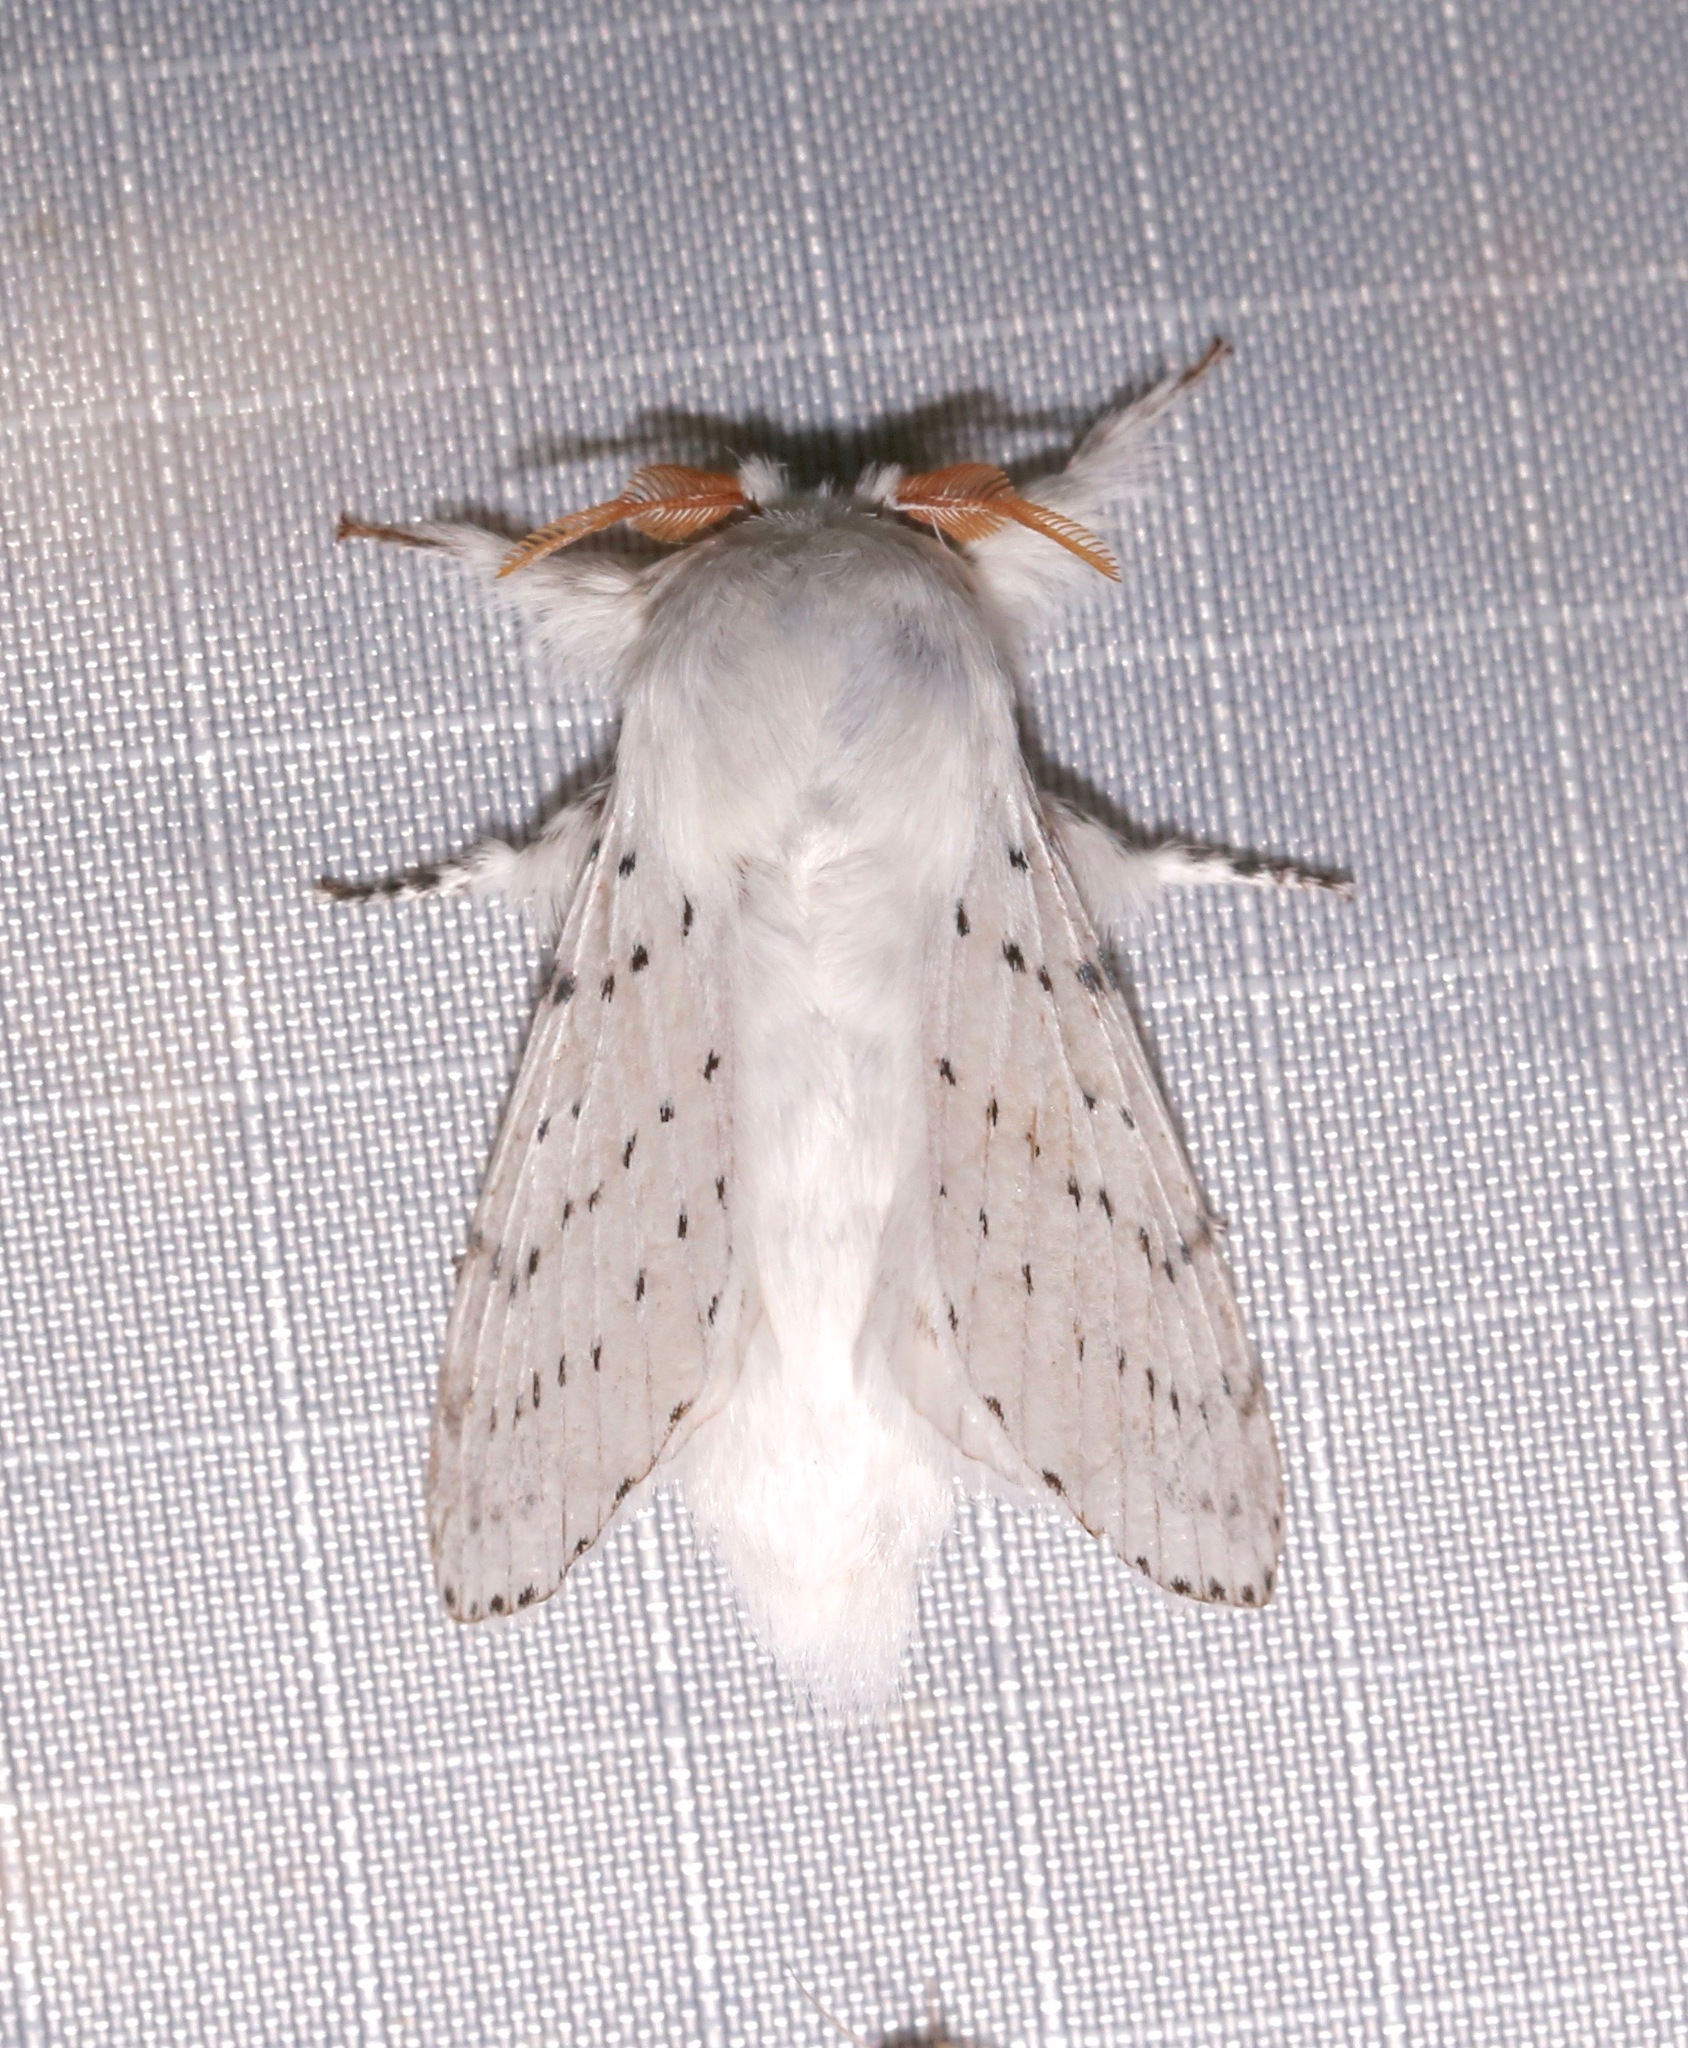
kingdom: Animalia
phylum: Arthropoda
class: Insecta
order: Lepidoptera
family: Lasiocampidae
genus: Artace
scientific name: Artace cribrarius
